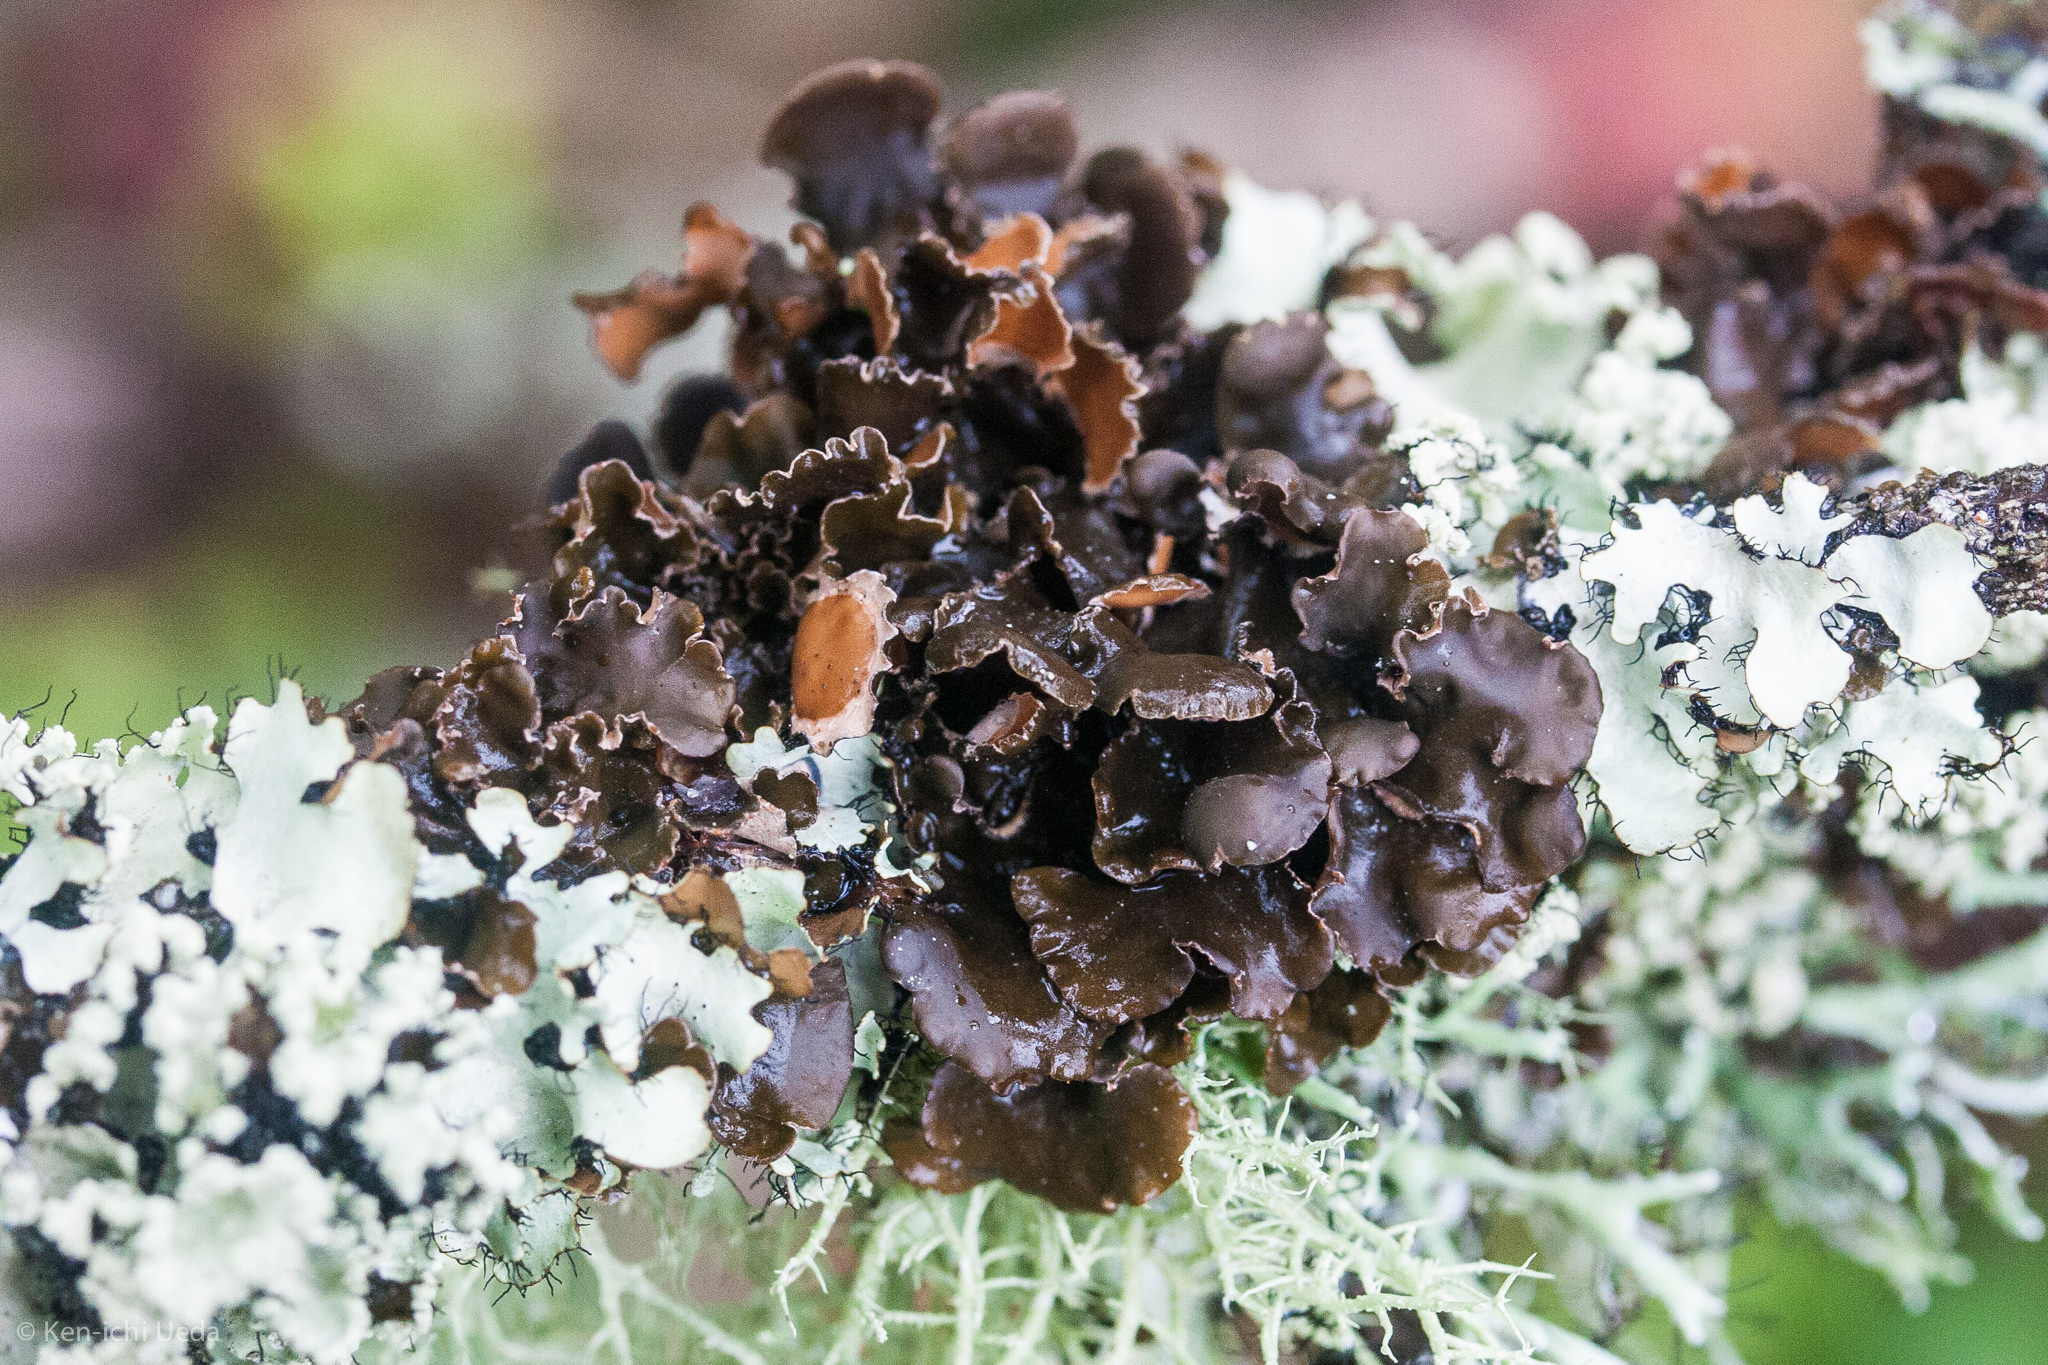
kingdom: Fungi
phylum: Ascomycota
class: Lecanoromycetes
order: Peltigerales
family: Nephromataceae
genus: Nephroma
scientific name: Nephroma helveticum
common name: Fringed kidney lichen
